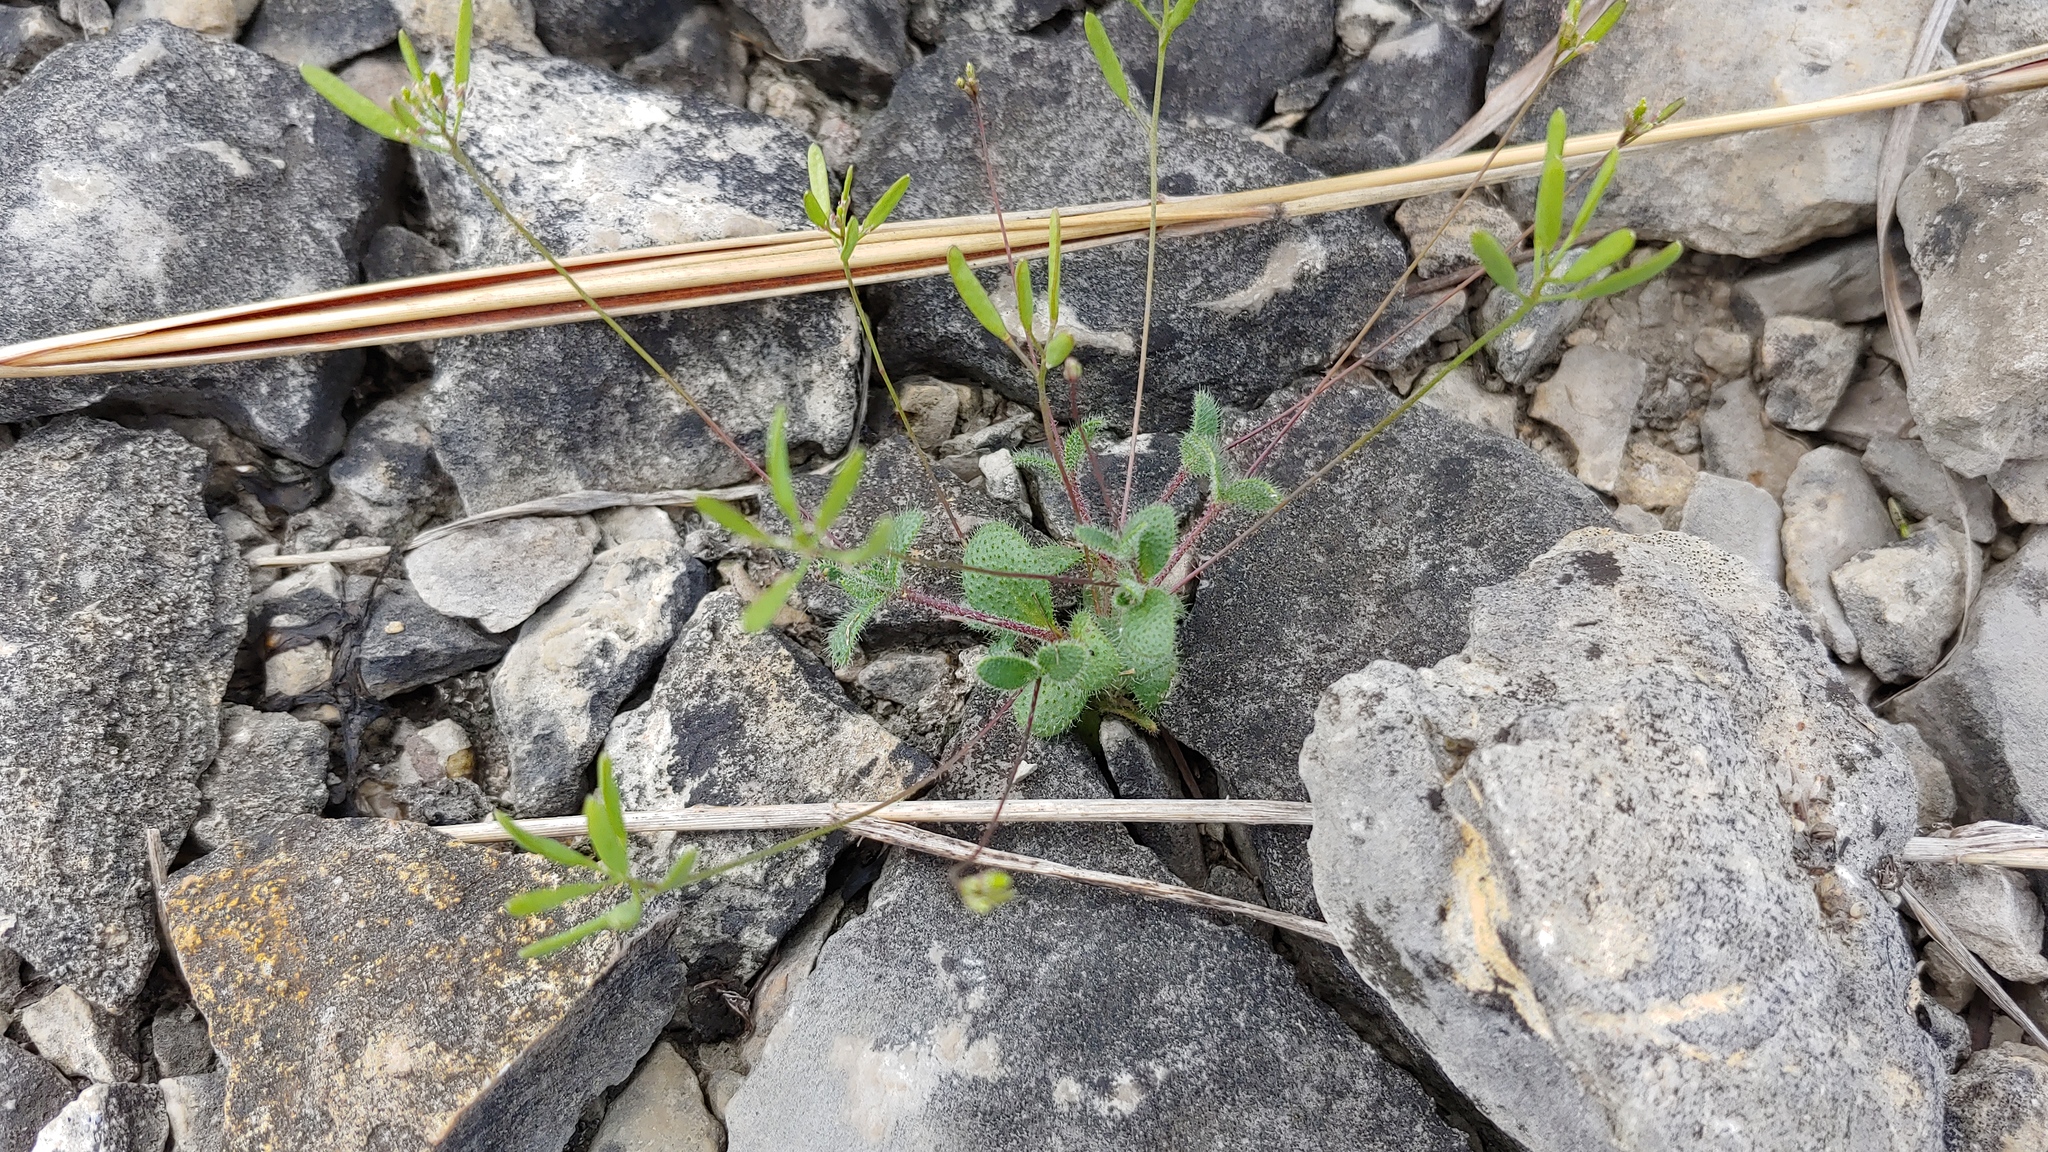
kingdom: Plantae
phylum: Tracheophyta
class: Magnoliopsida
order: Brassicales
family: Brassicaceae
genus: Tomostima
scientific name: Tomostima reptans
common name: Carolina draba
